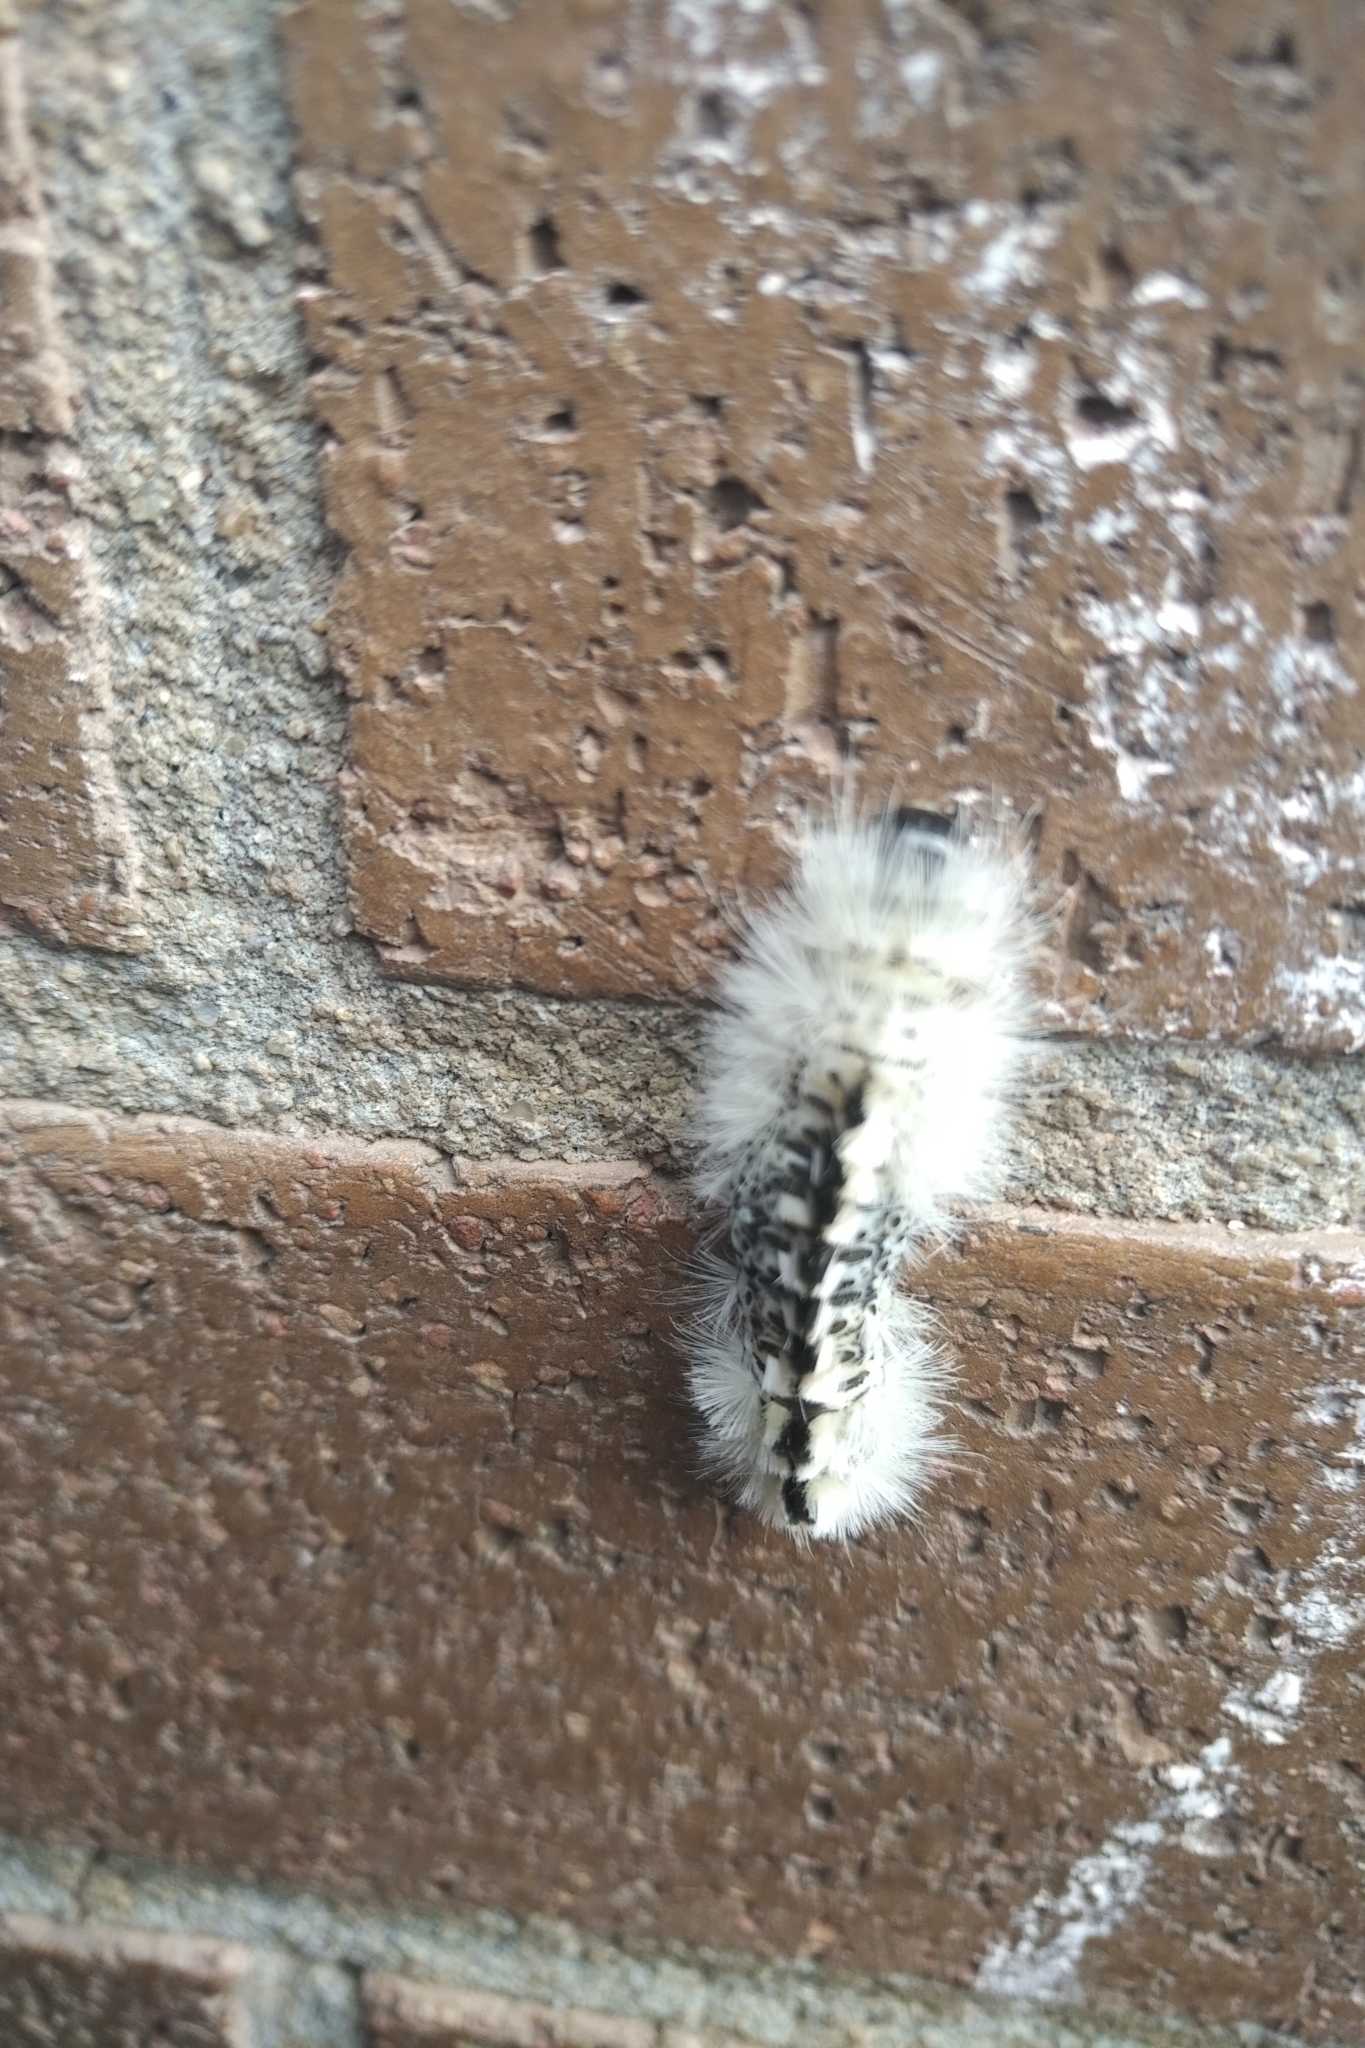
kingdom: Animalia
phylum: Arthropoda
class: Insecta
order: Lepidoptera
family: Erebidae
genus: Lophocampa
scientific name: Lophocampa caryae
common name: Hickory tussock moth
